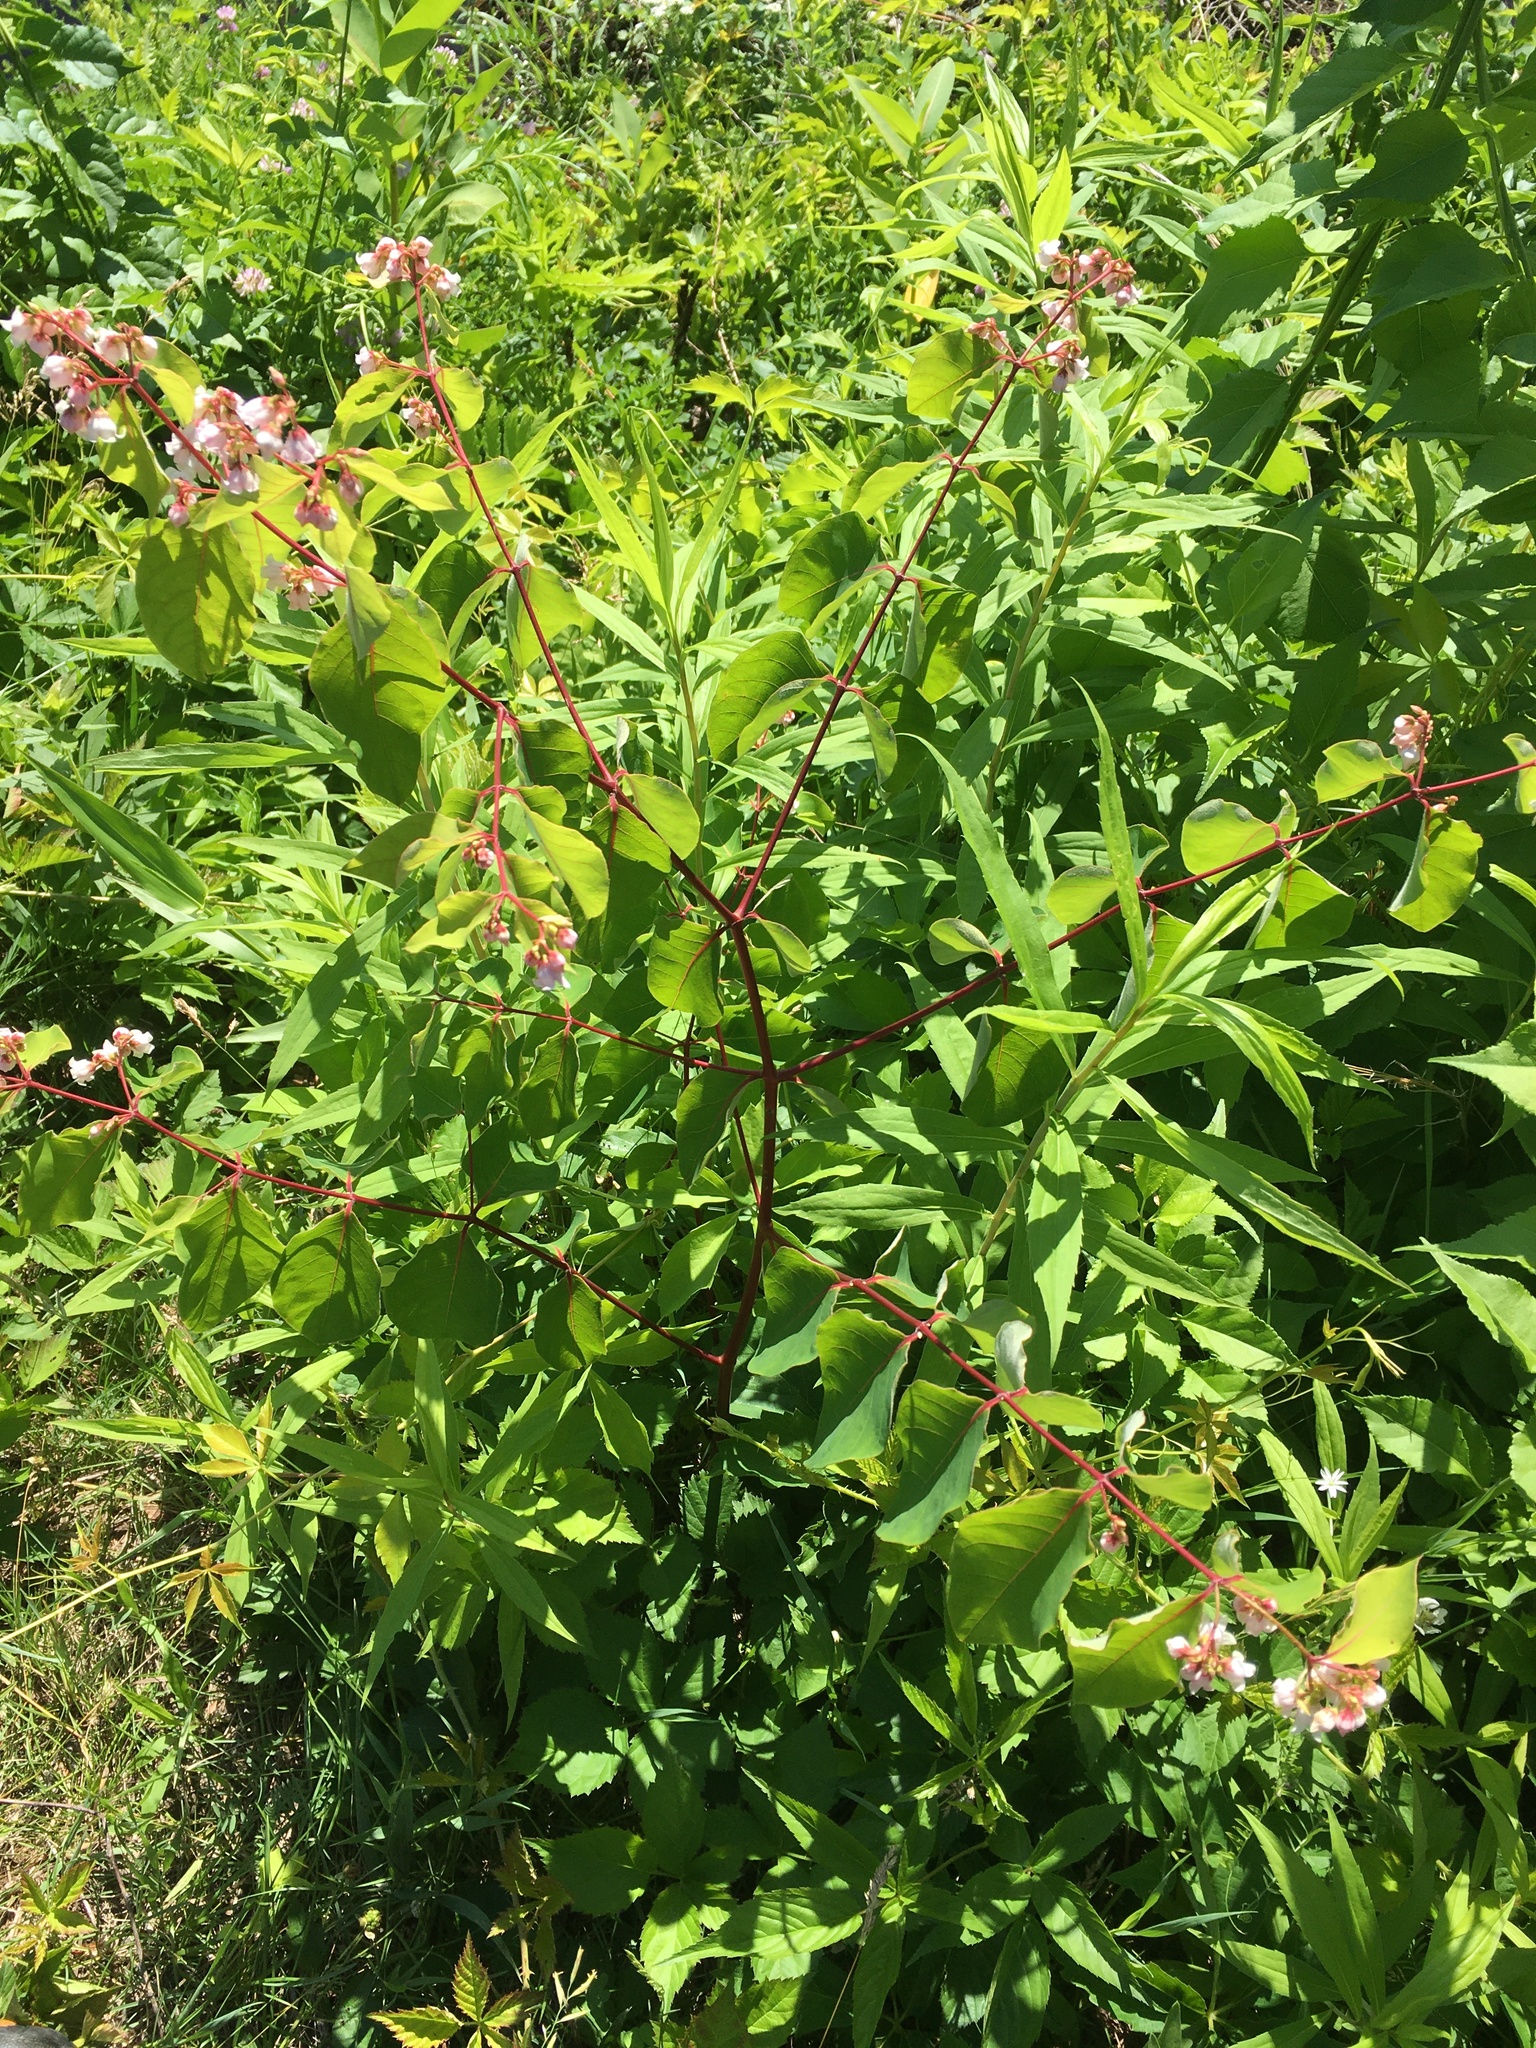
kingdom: Plantae
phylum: Tracheophyta
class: Magnoliopsida
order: Gentianales
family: Apocynaceae
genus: Apocynum
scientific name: Apocynum androsaemifolium
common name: Spreading dogbane
